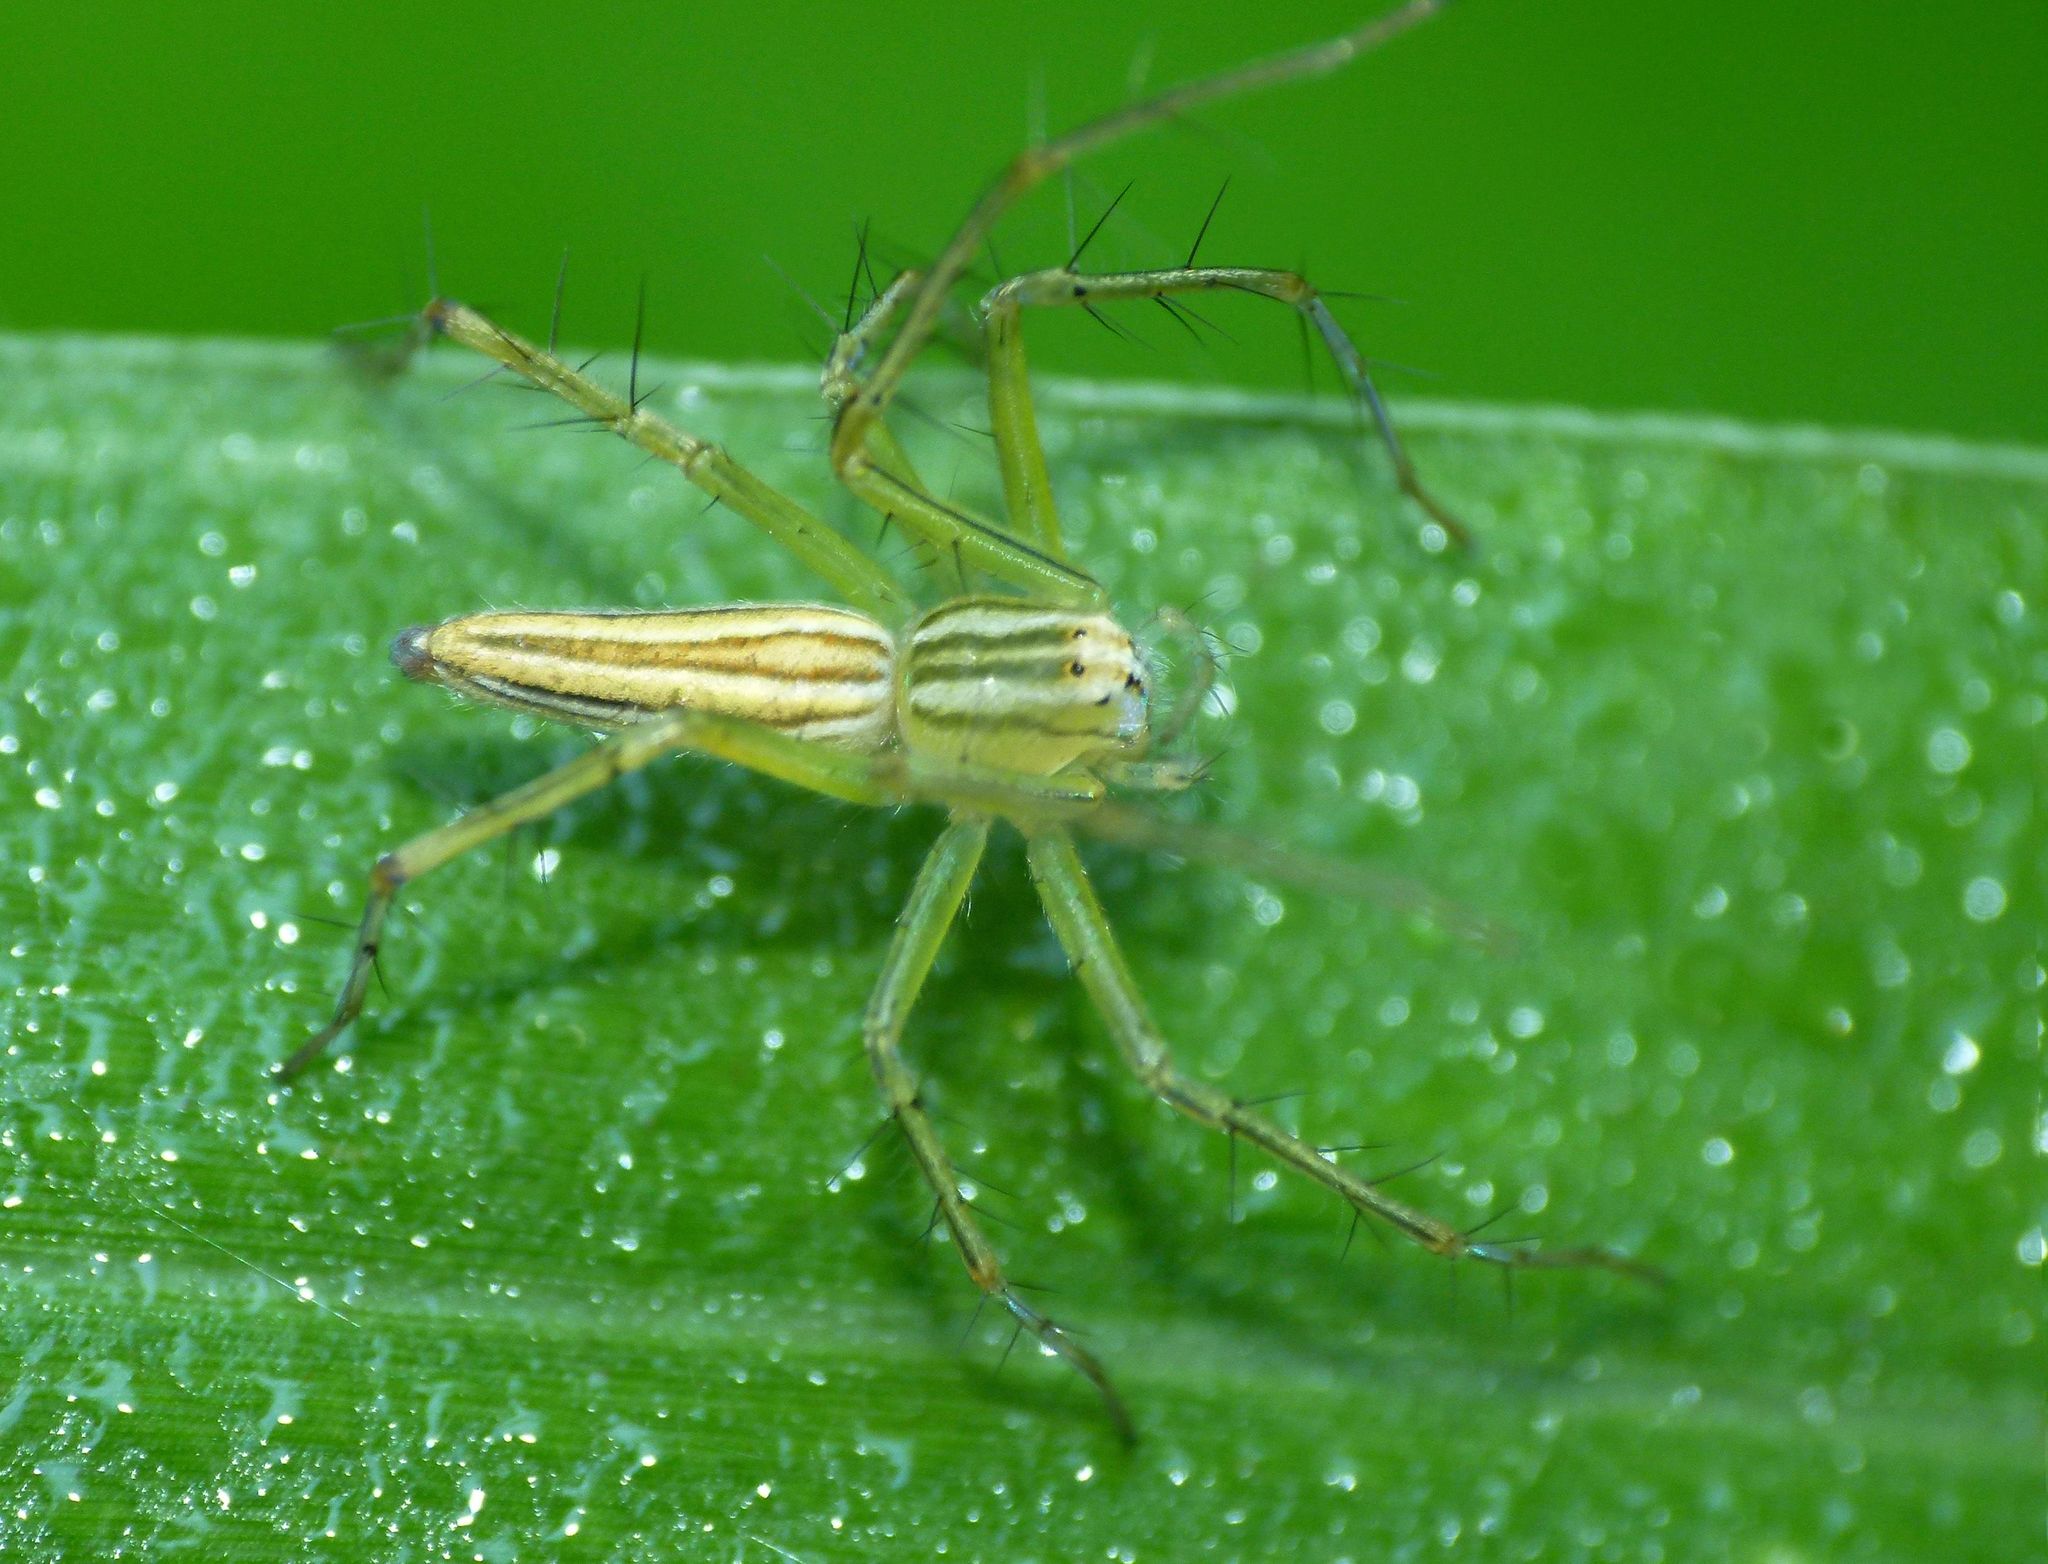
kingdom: Animalia
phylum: Arthropoda
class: Arachnida
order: Araneae
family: Oxyopidae
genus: Oxyopes
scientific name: Oxyopes macilentus
